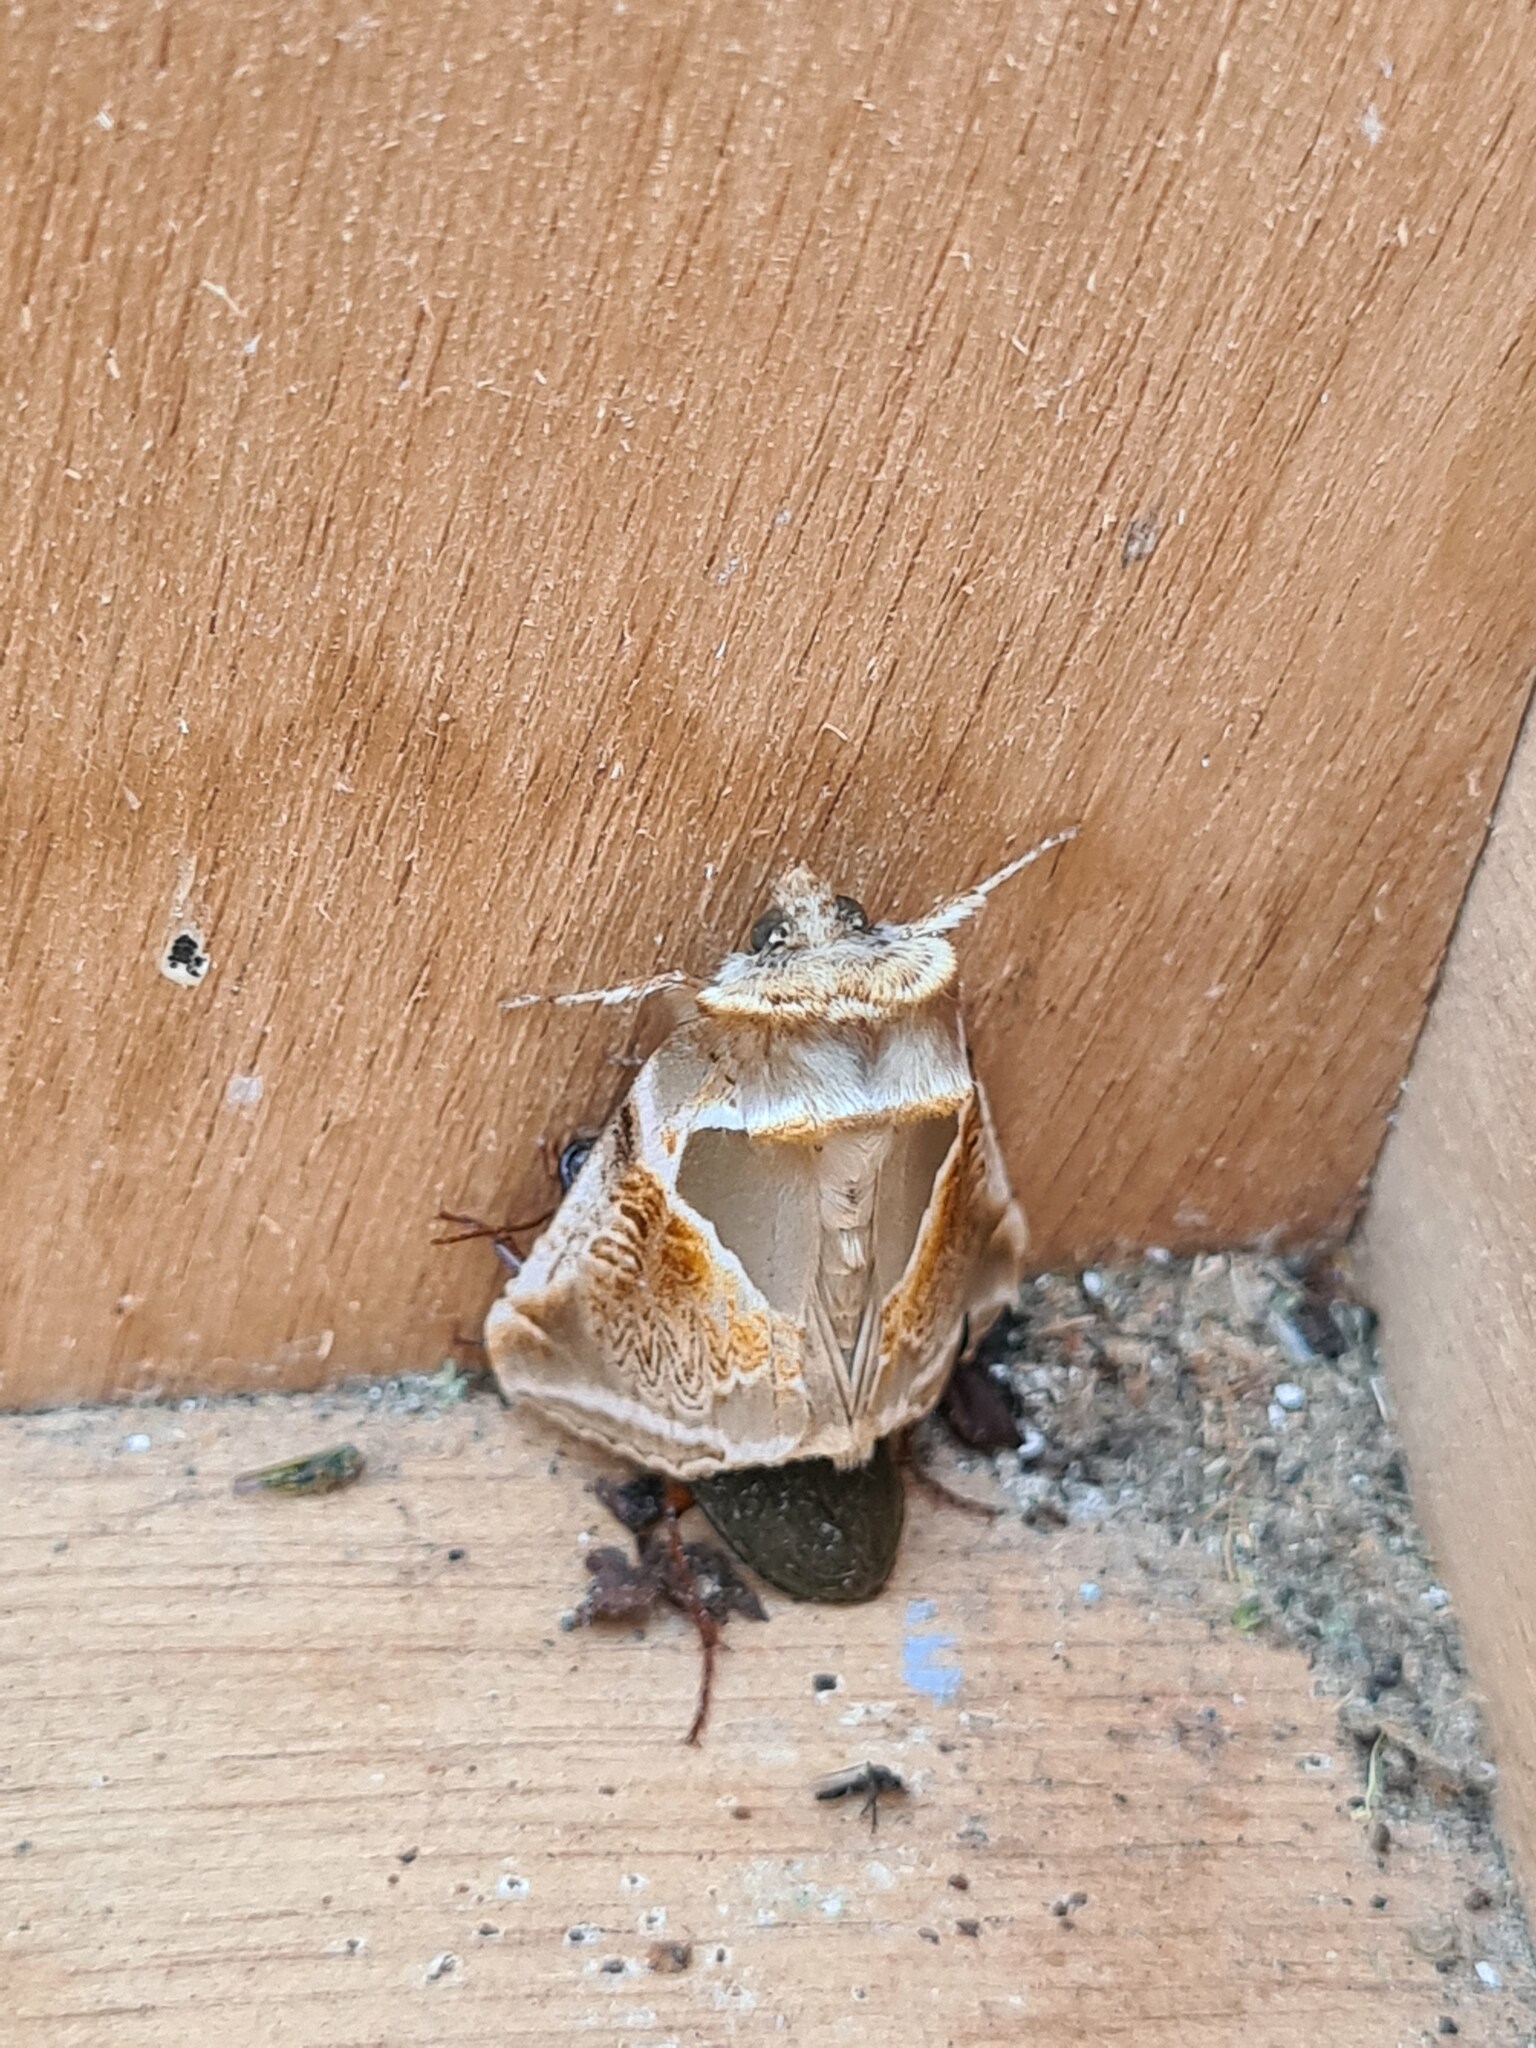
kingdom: Animalia
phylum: Arthropoda
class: Insecta
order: Lepidoptera
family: Drepanidae
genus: Habrosyne
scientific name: Habrosyne pyritoides
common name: Buff arches
